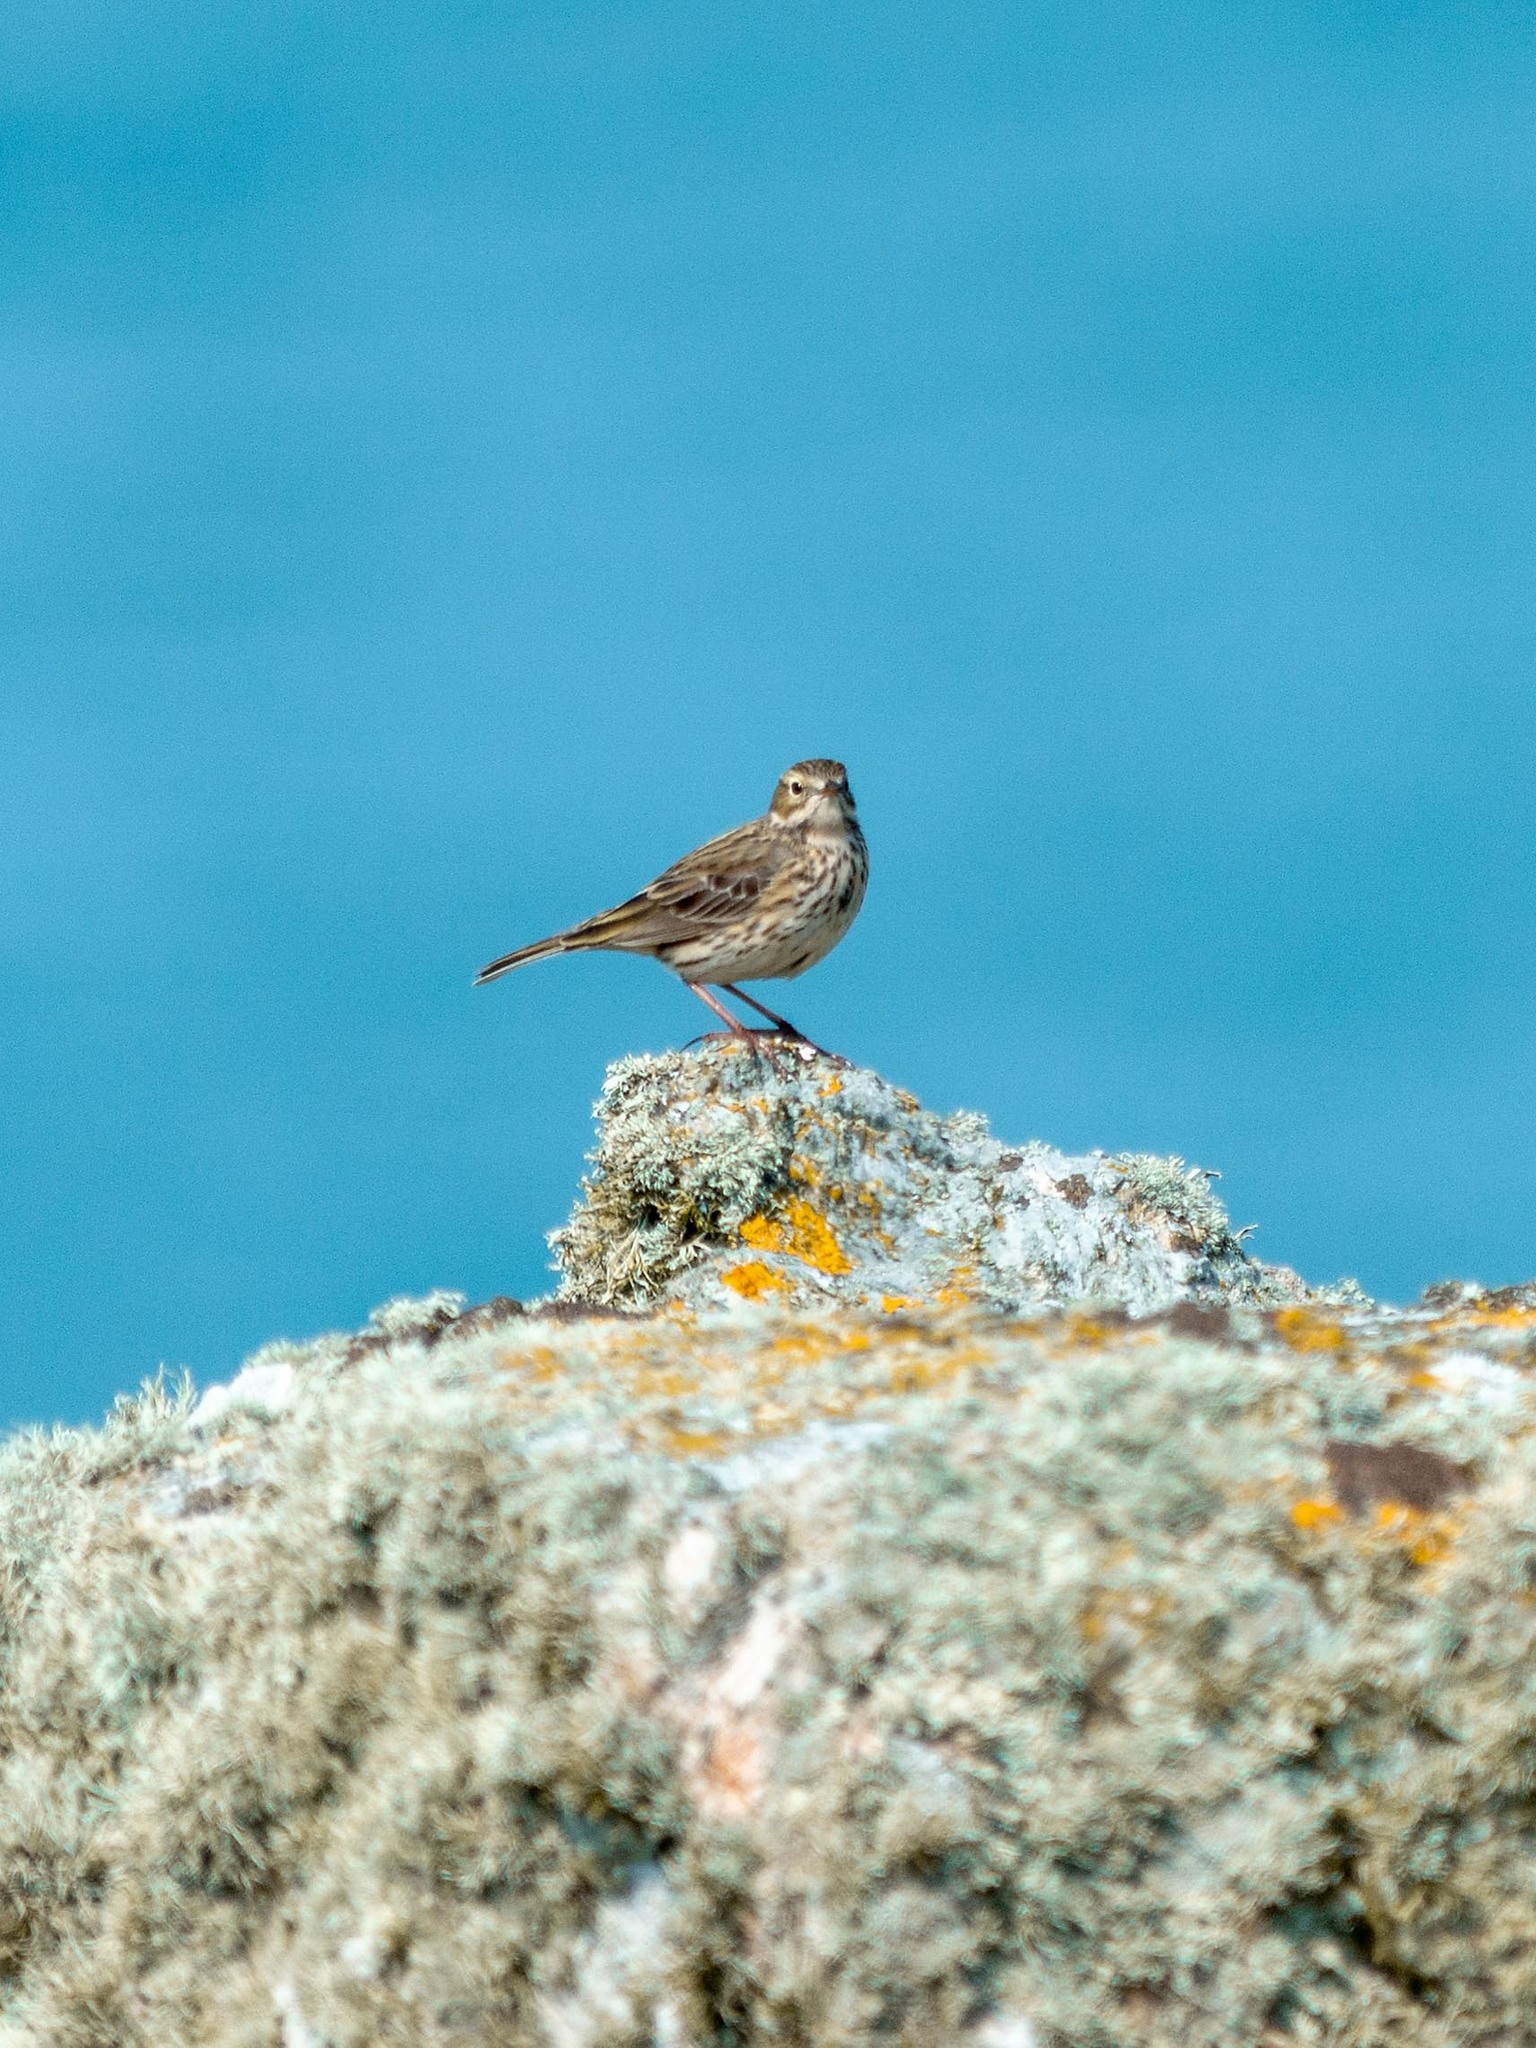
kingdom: Animalia
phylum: Chordata
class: Aves
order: Passeriformes
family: Motacillidae
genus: Anthus
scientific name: Anthus pratensis
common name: Meadow pipit
